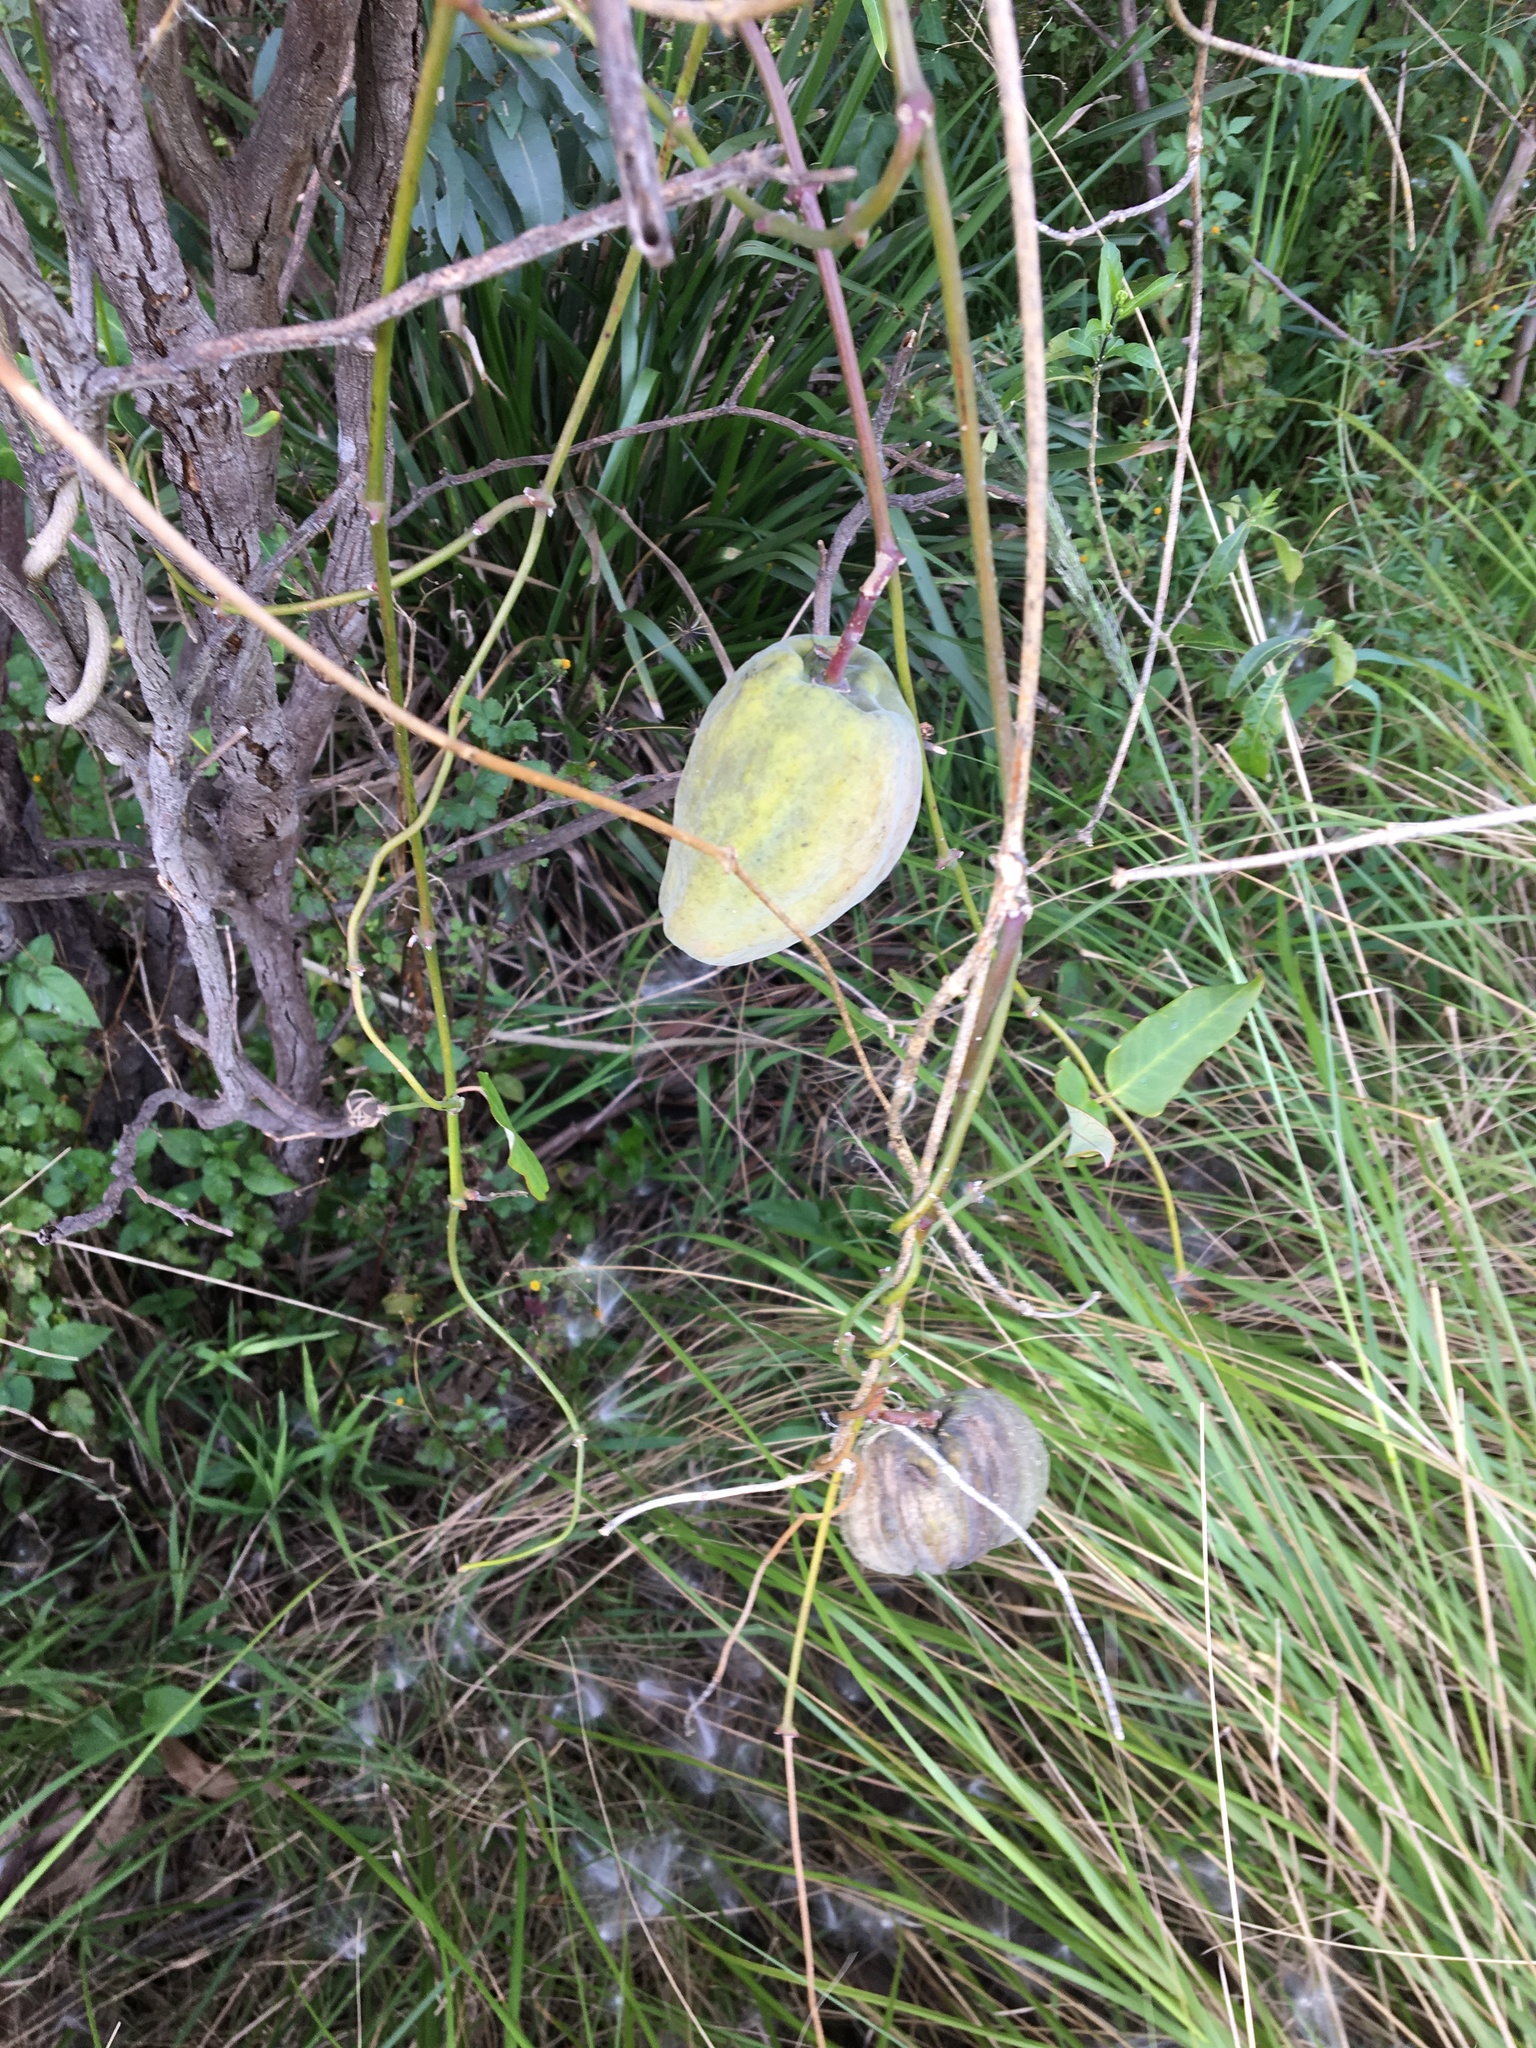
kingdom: Plantae
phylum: Tracheophyta
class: Magnoliopsida
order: Gentianales
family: Apocynaceae
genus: Araujia
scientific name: Araujia sericifera
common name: White bladderflower
